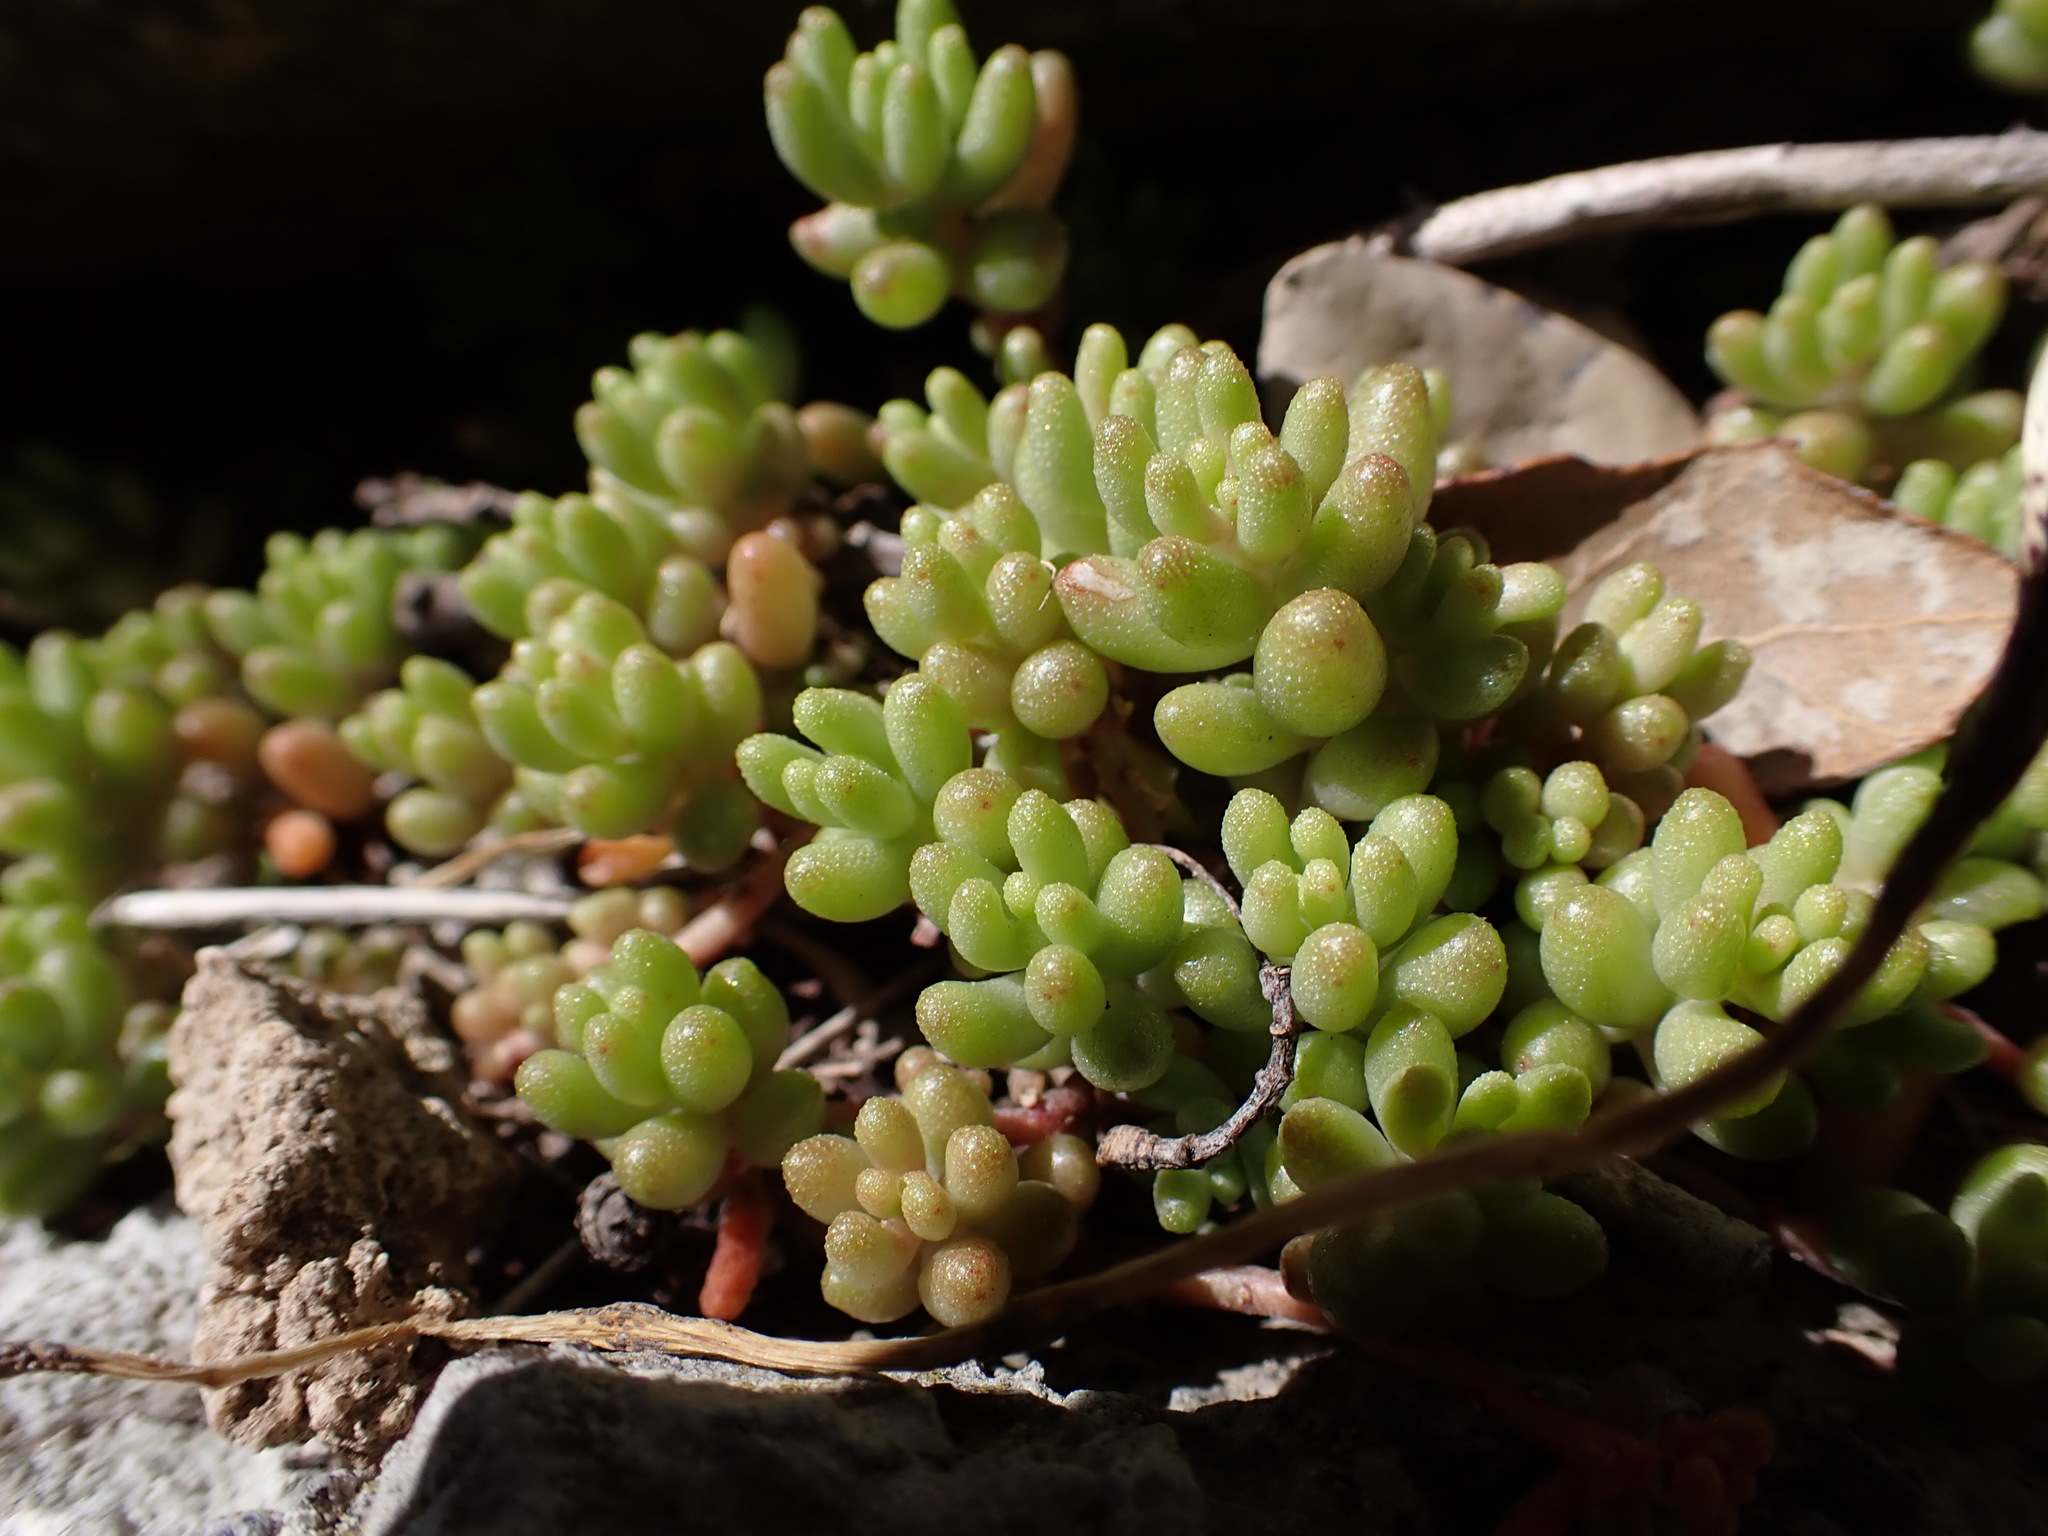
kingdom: Plantae
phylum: Tracheophyta
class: Magnoliopsida
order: Saxifragales
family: Crassulaceae
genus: Sedum
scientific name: Sedum album
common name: White stonecrop
